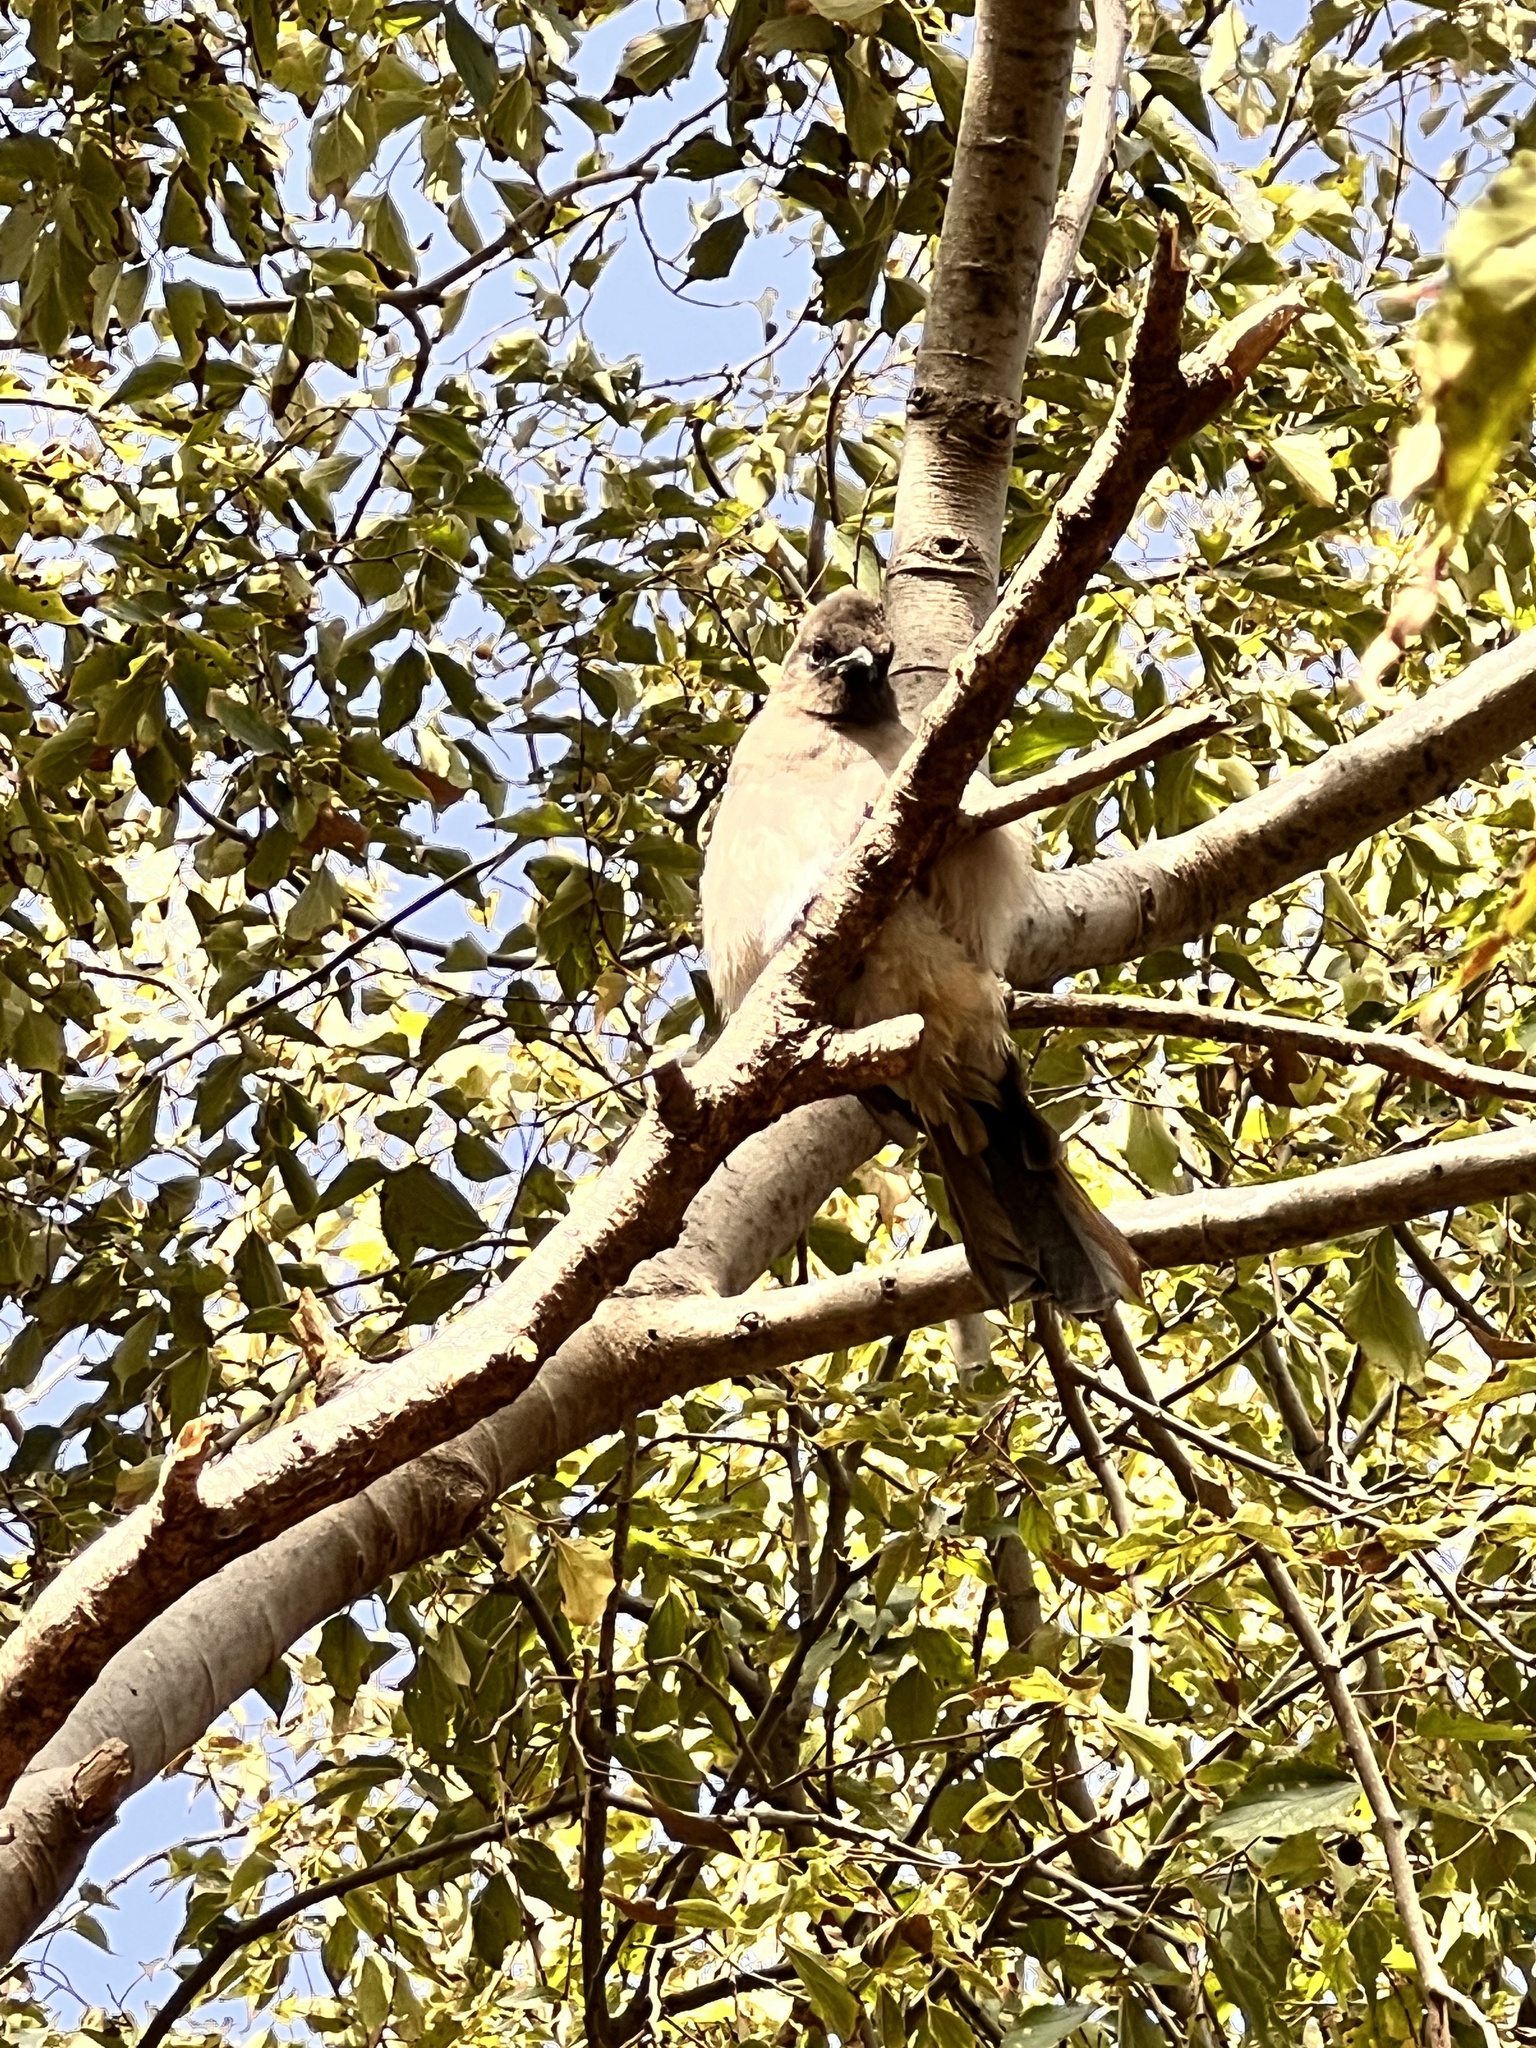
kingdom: Animalia
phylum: Chordata
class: Aves
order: Passeriformes
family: Pycnonotidae
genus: Pycnonotus
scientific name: Pycnonotus barbatus
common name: Common bulbul
